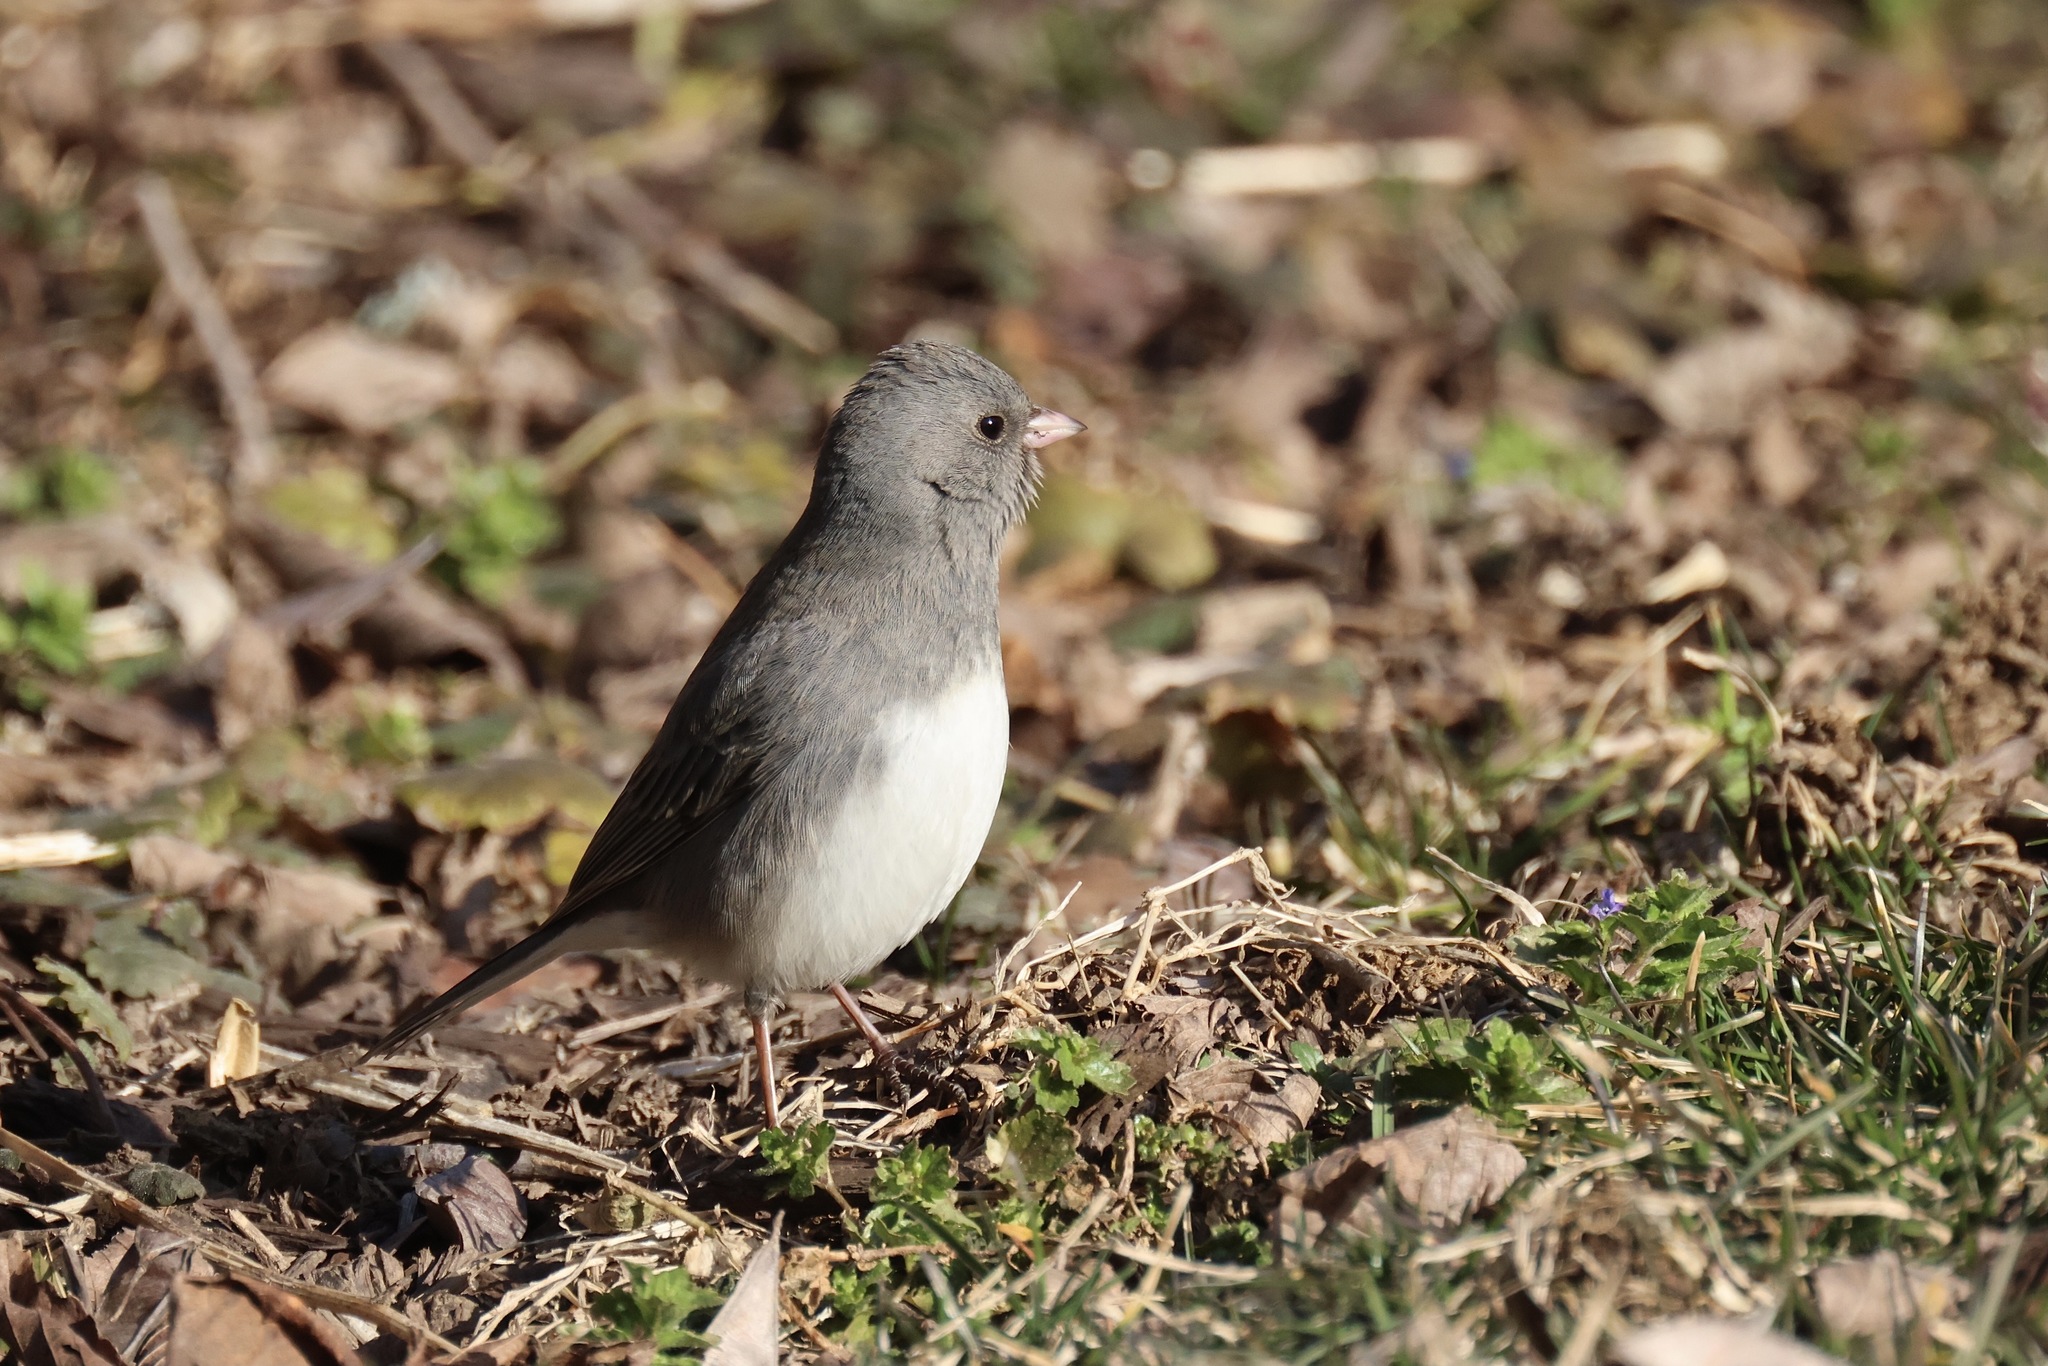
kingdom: Animalia
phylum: Chordata
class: Aves
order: Passeriformes
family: Passerellidae
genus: Junco
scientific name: Junco hyemalis
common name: Dark-eyed junco
